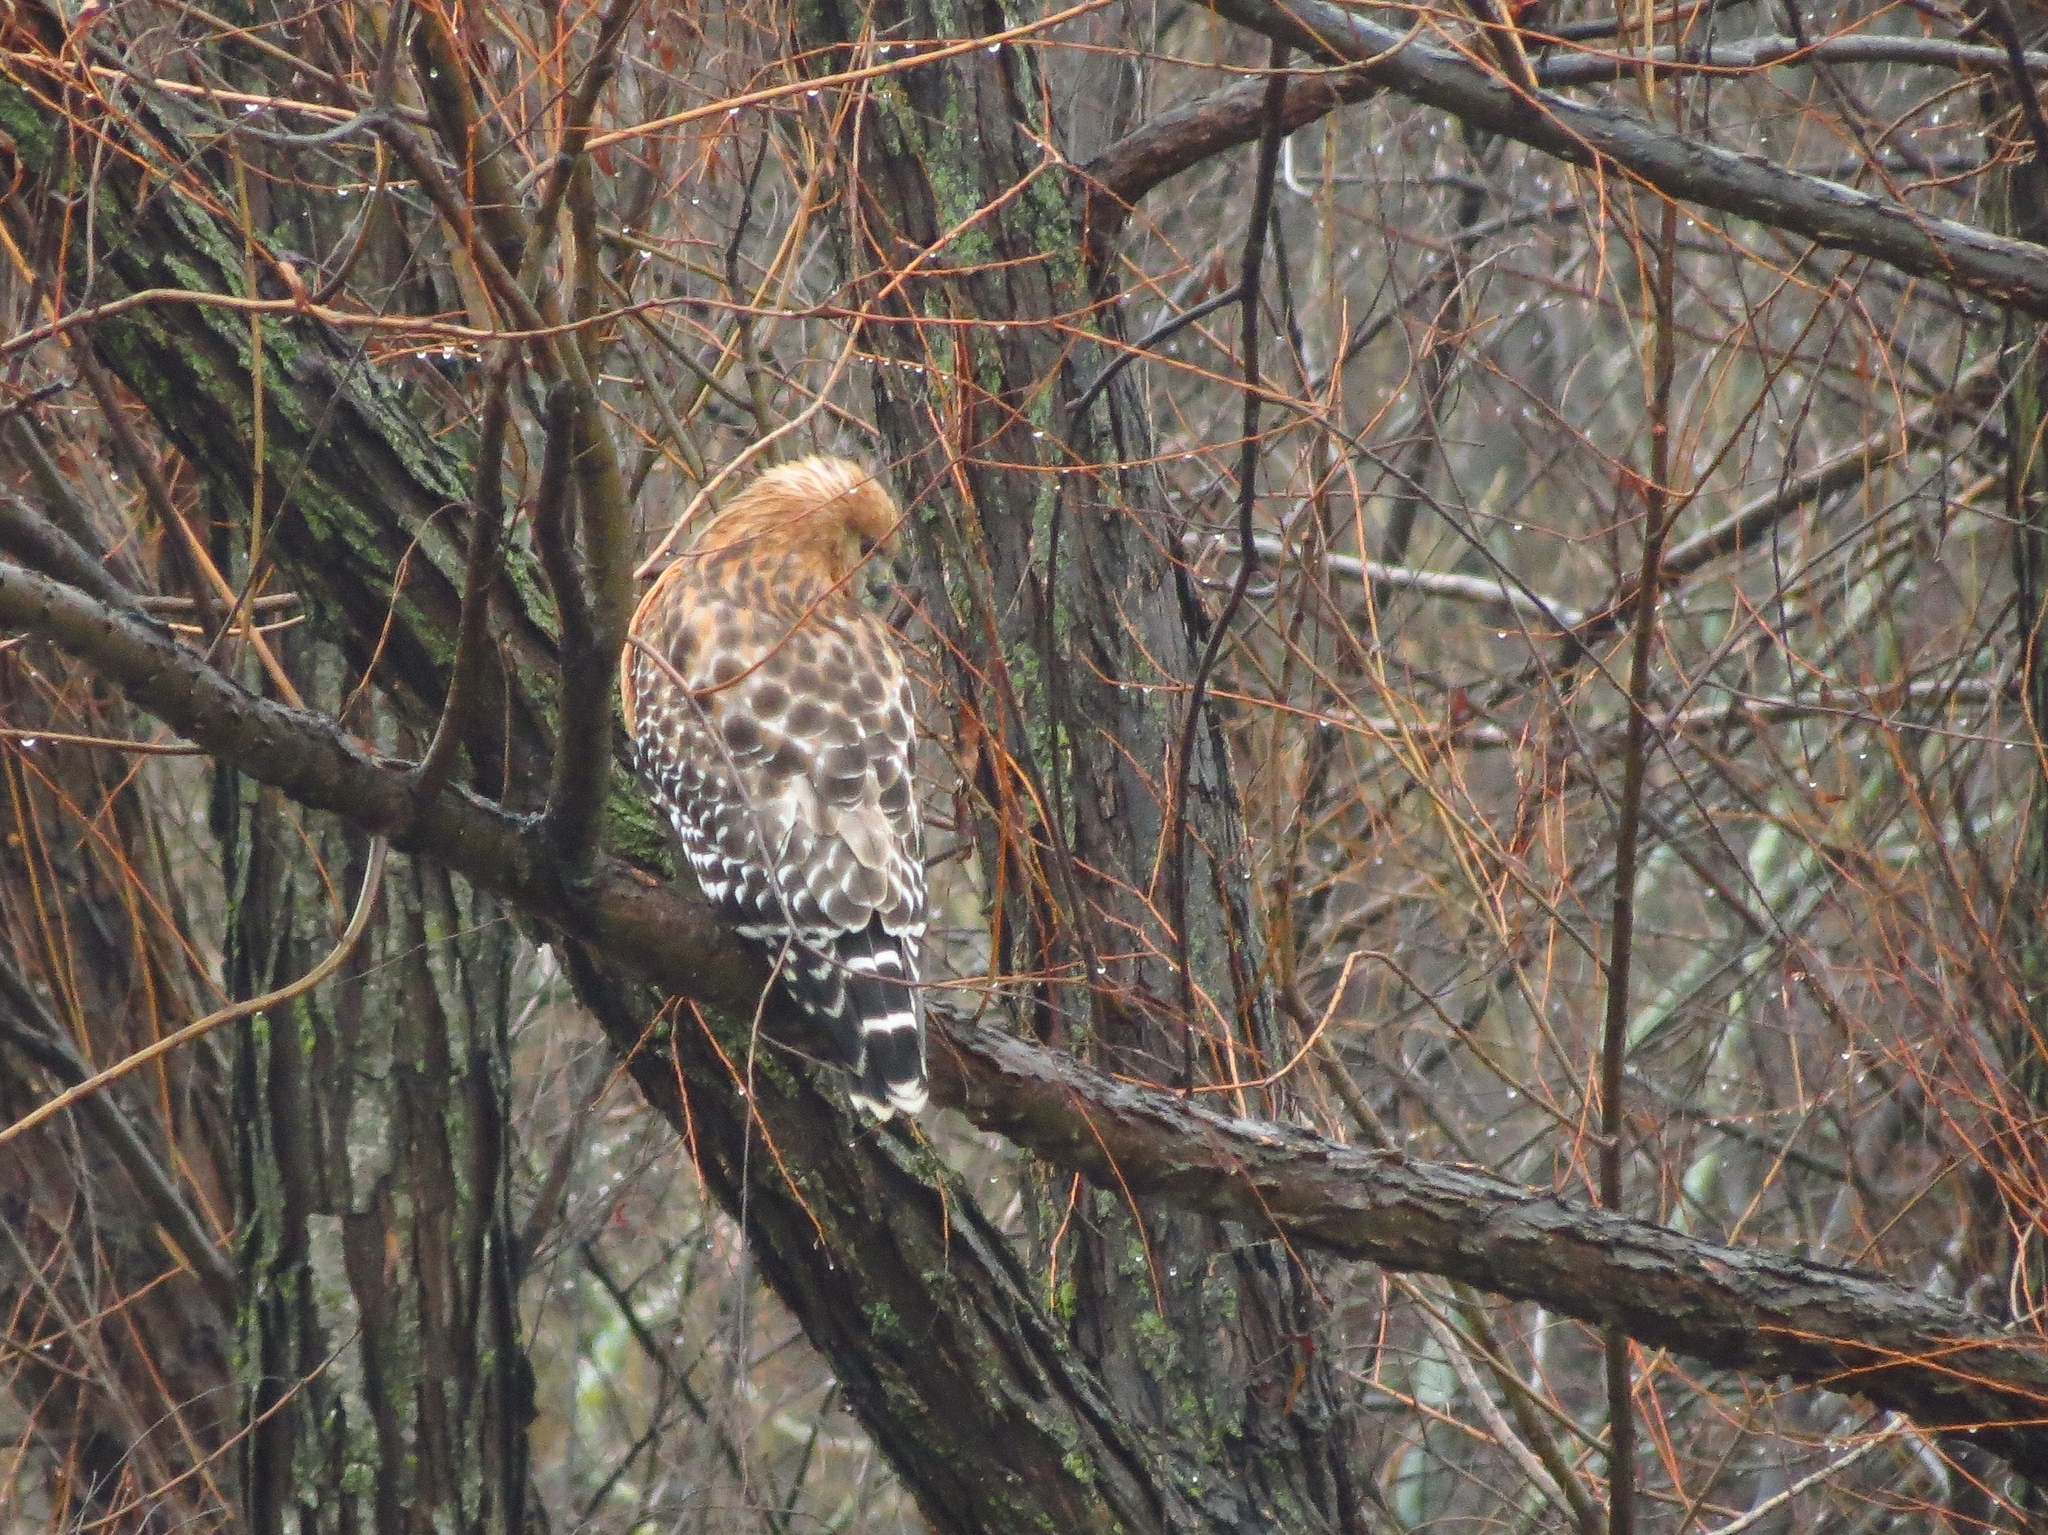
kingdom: Animalia
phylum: Chordata
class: Aves
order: Accipitriformes
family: Accipitridae
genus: Buteo
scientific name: Buteo lineatus
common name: Red-shouldered hawk
